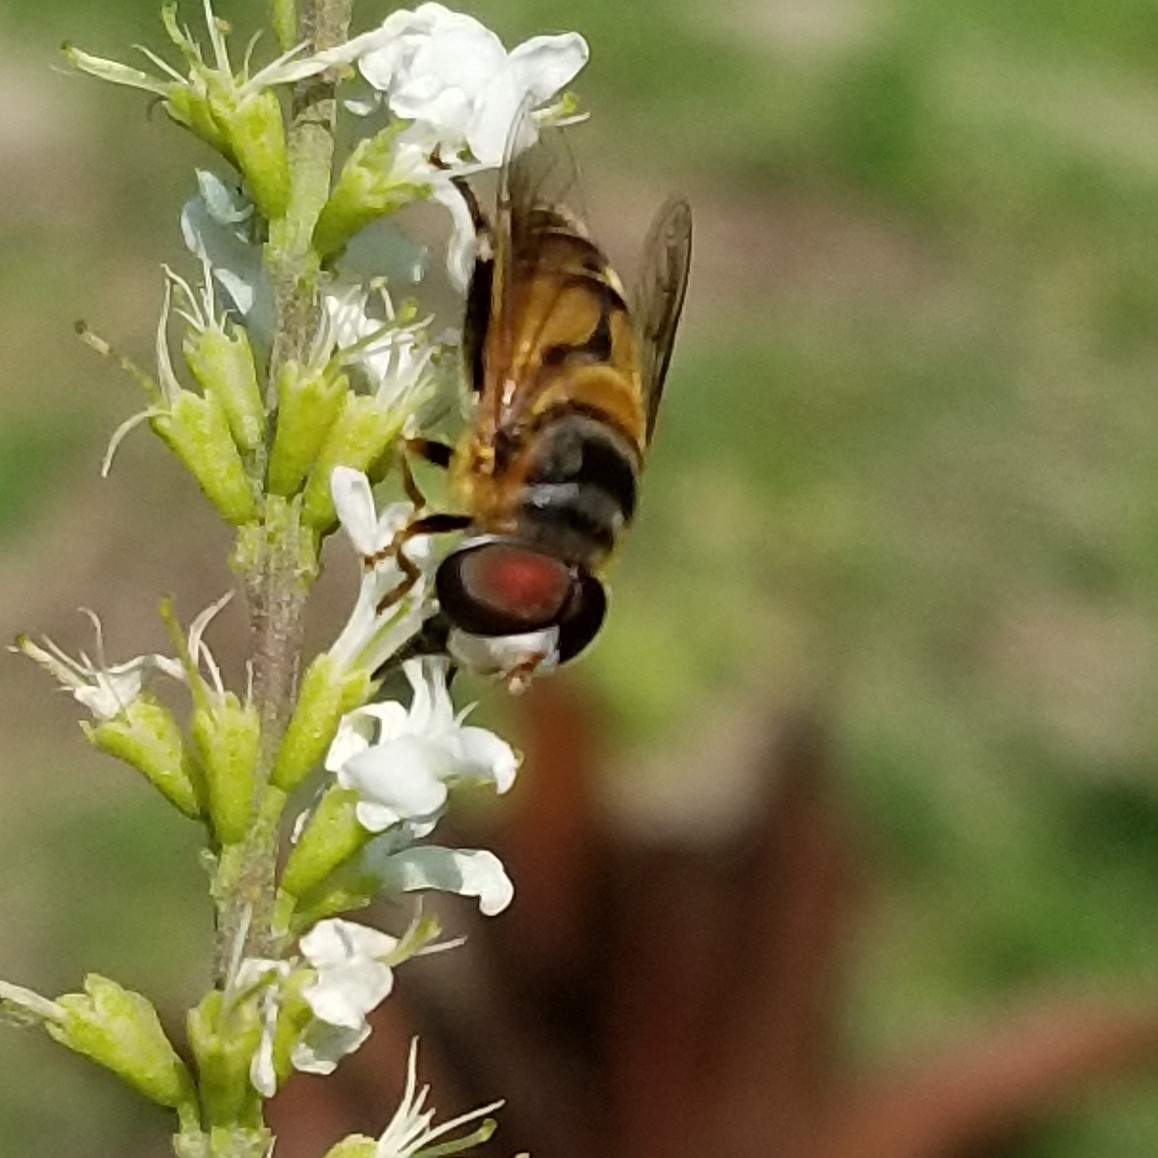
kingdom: Animalia
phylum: Arthropoda
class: Insecta
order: Diptera
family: Syrphidae
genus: Palpada
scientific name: Palpada vinetorum
